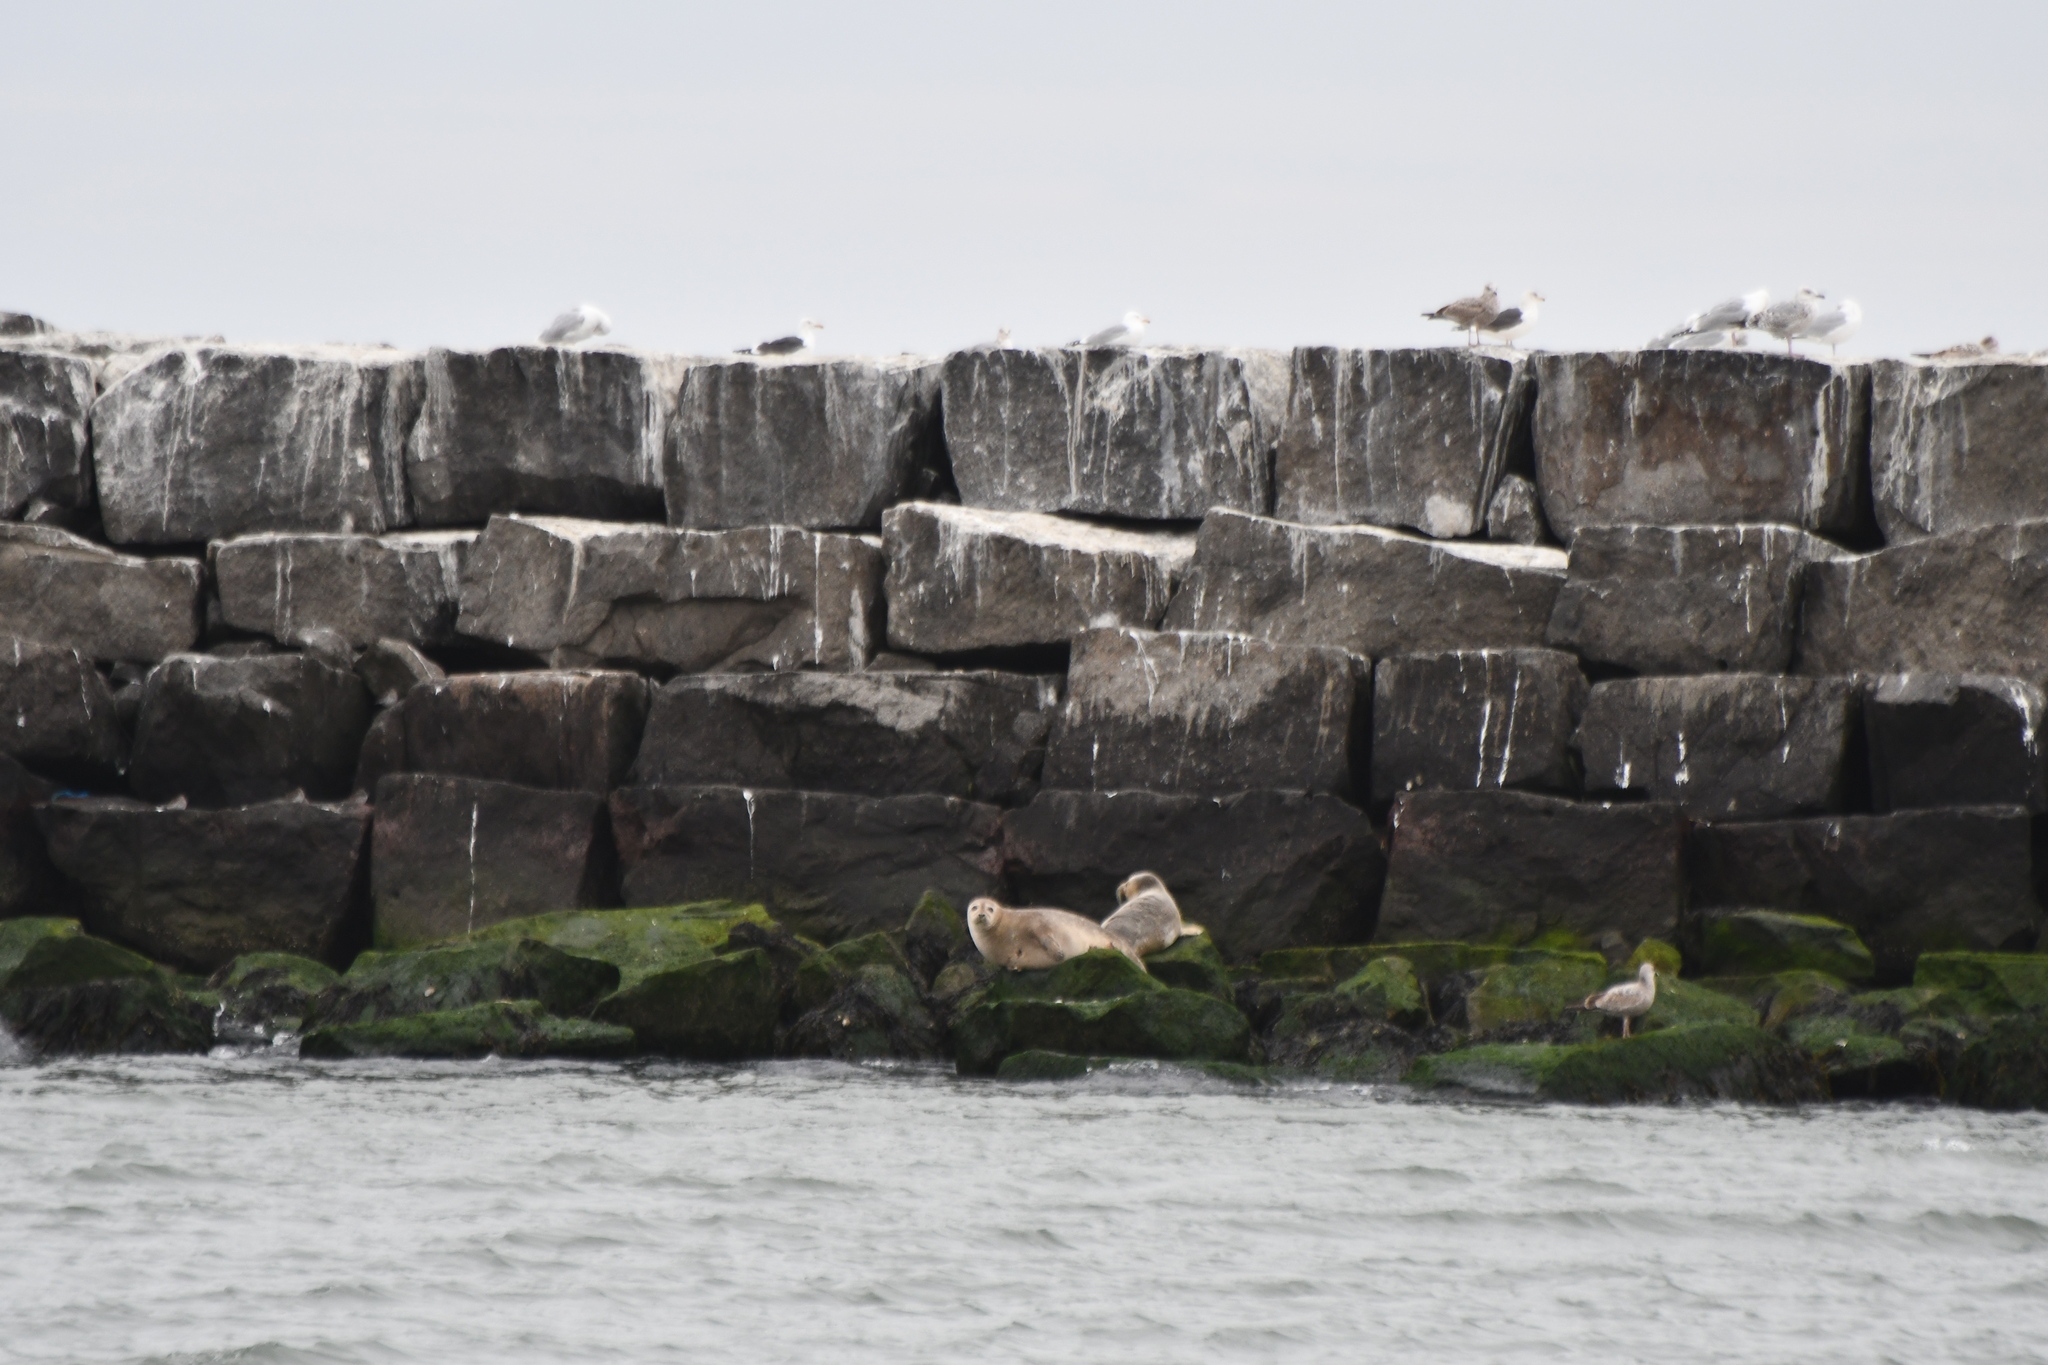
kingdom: Animalia
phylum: Chordata
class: Mammalia
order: Carnivora
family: Phocidae
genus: Phoca
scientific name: Phoca vitulina
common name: Harbor seal
